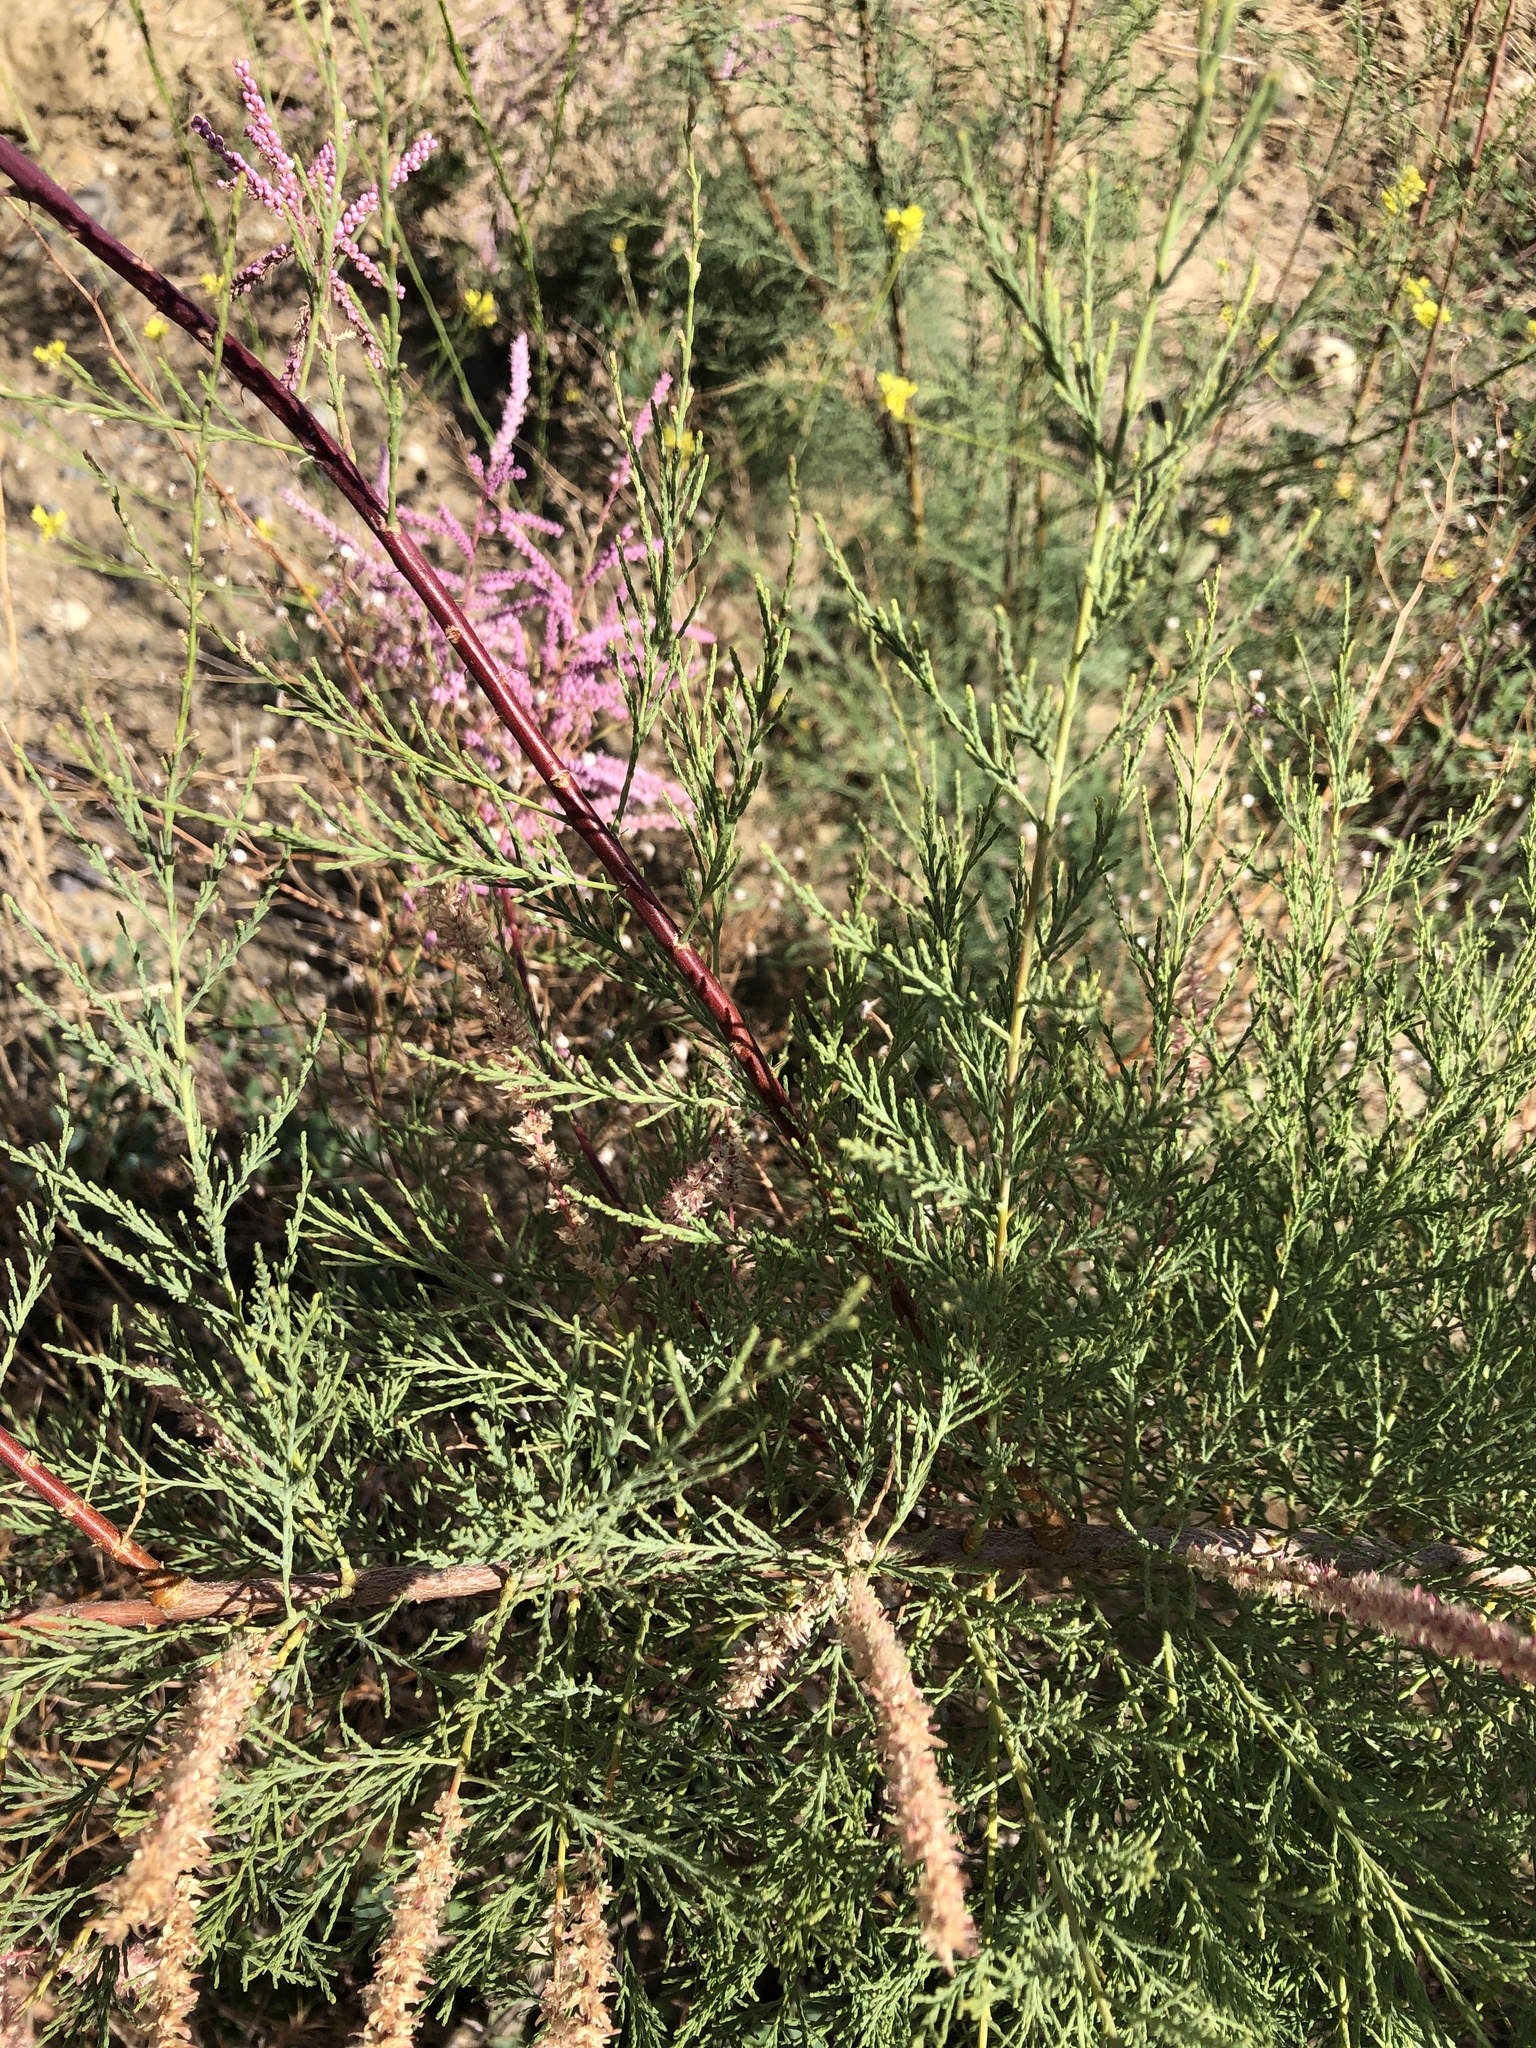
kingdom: Plantae
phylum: Tracheophyta
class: Magnoliopsida
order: Caryophyllales
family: Tamaricaceae
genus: Tamarix
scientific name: Tamarix ramosissima
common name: Pink tamarisk
